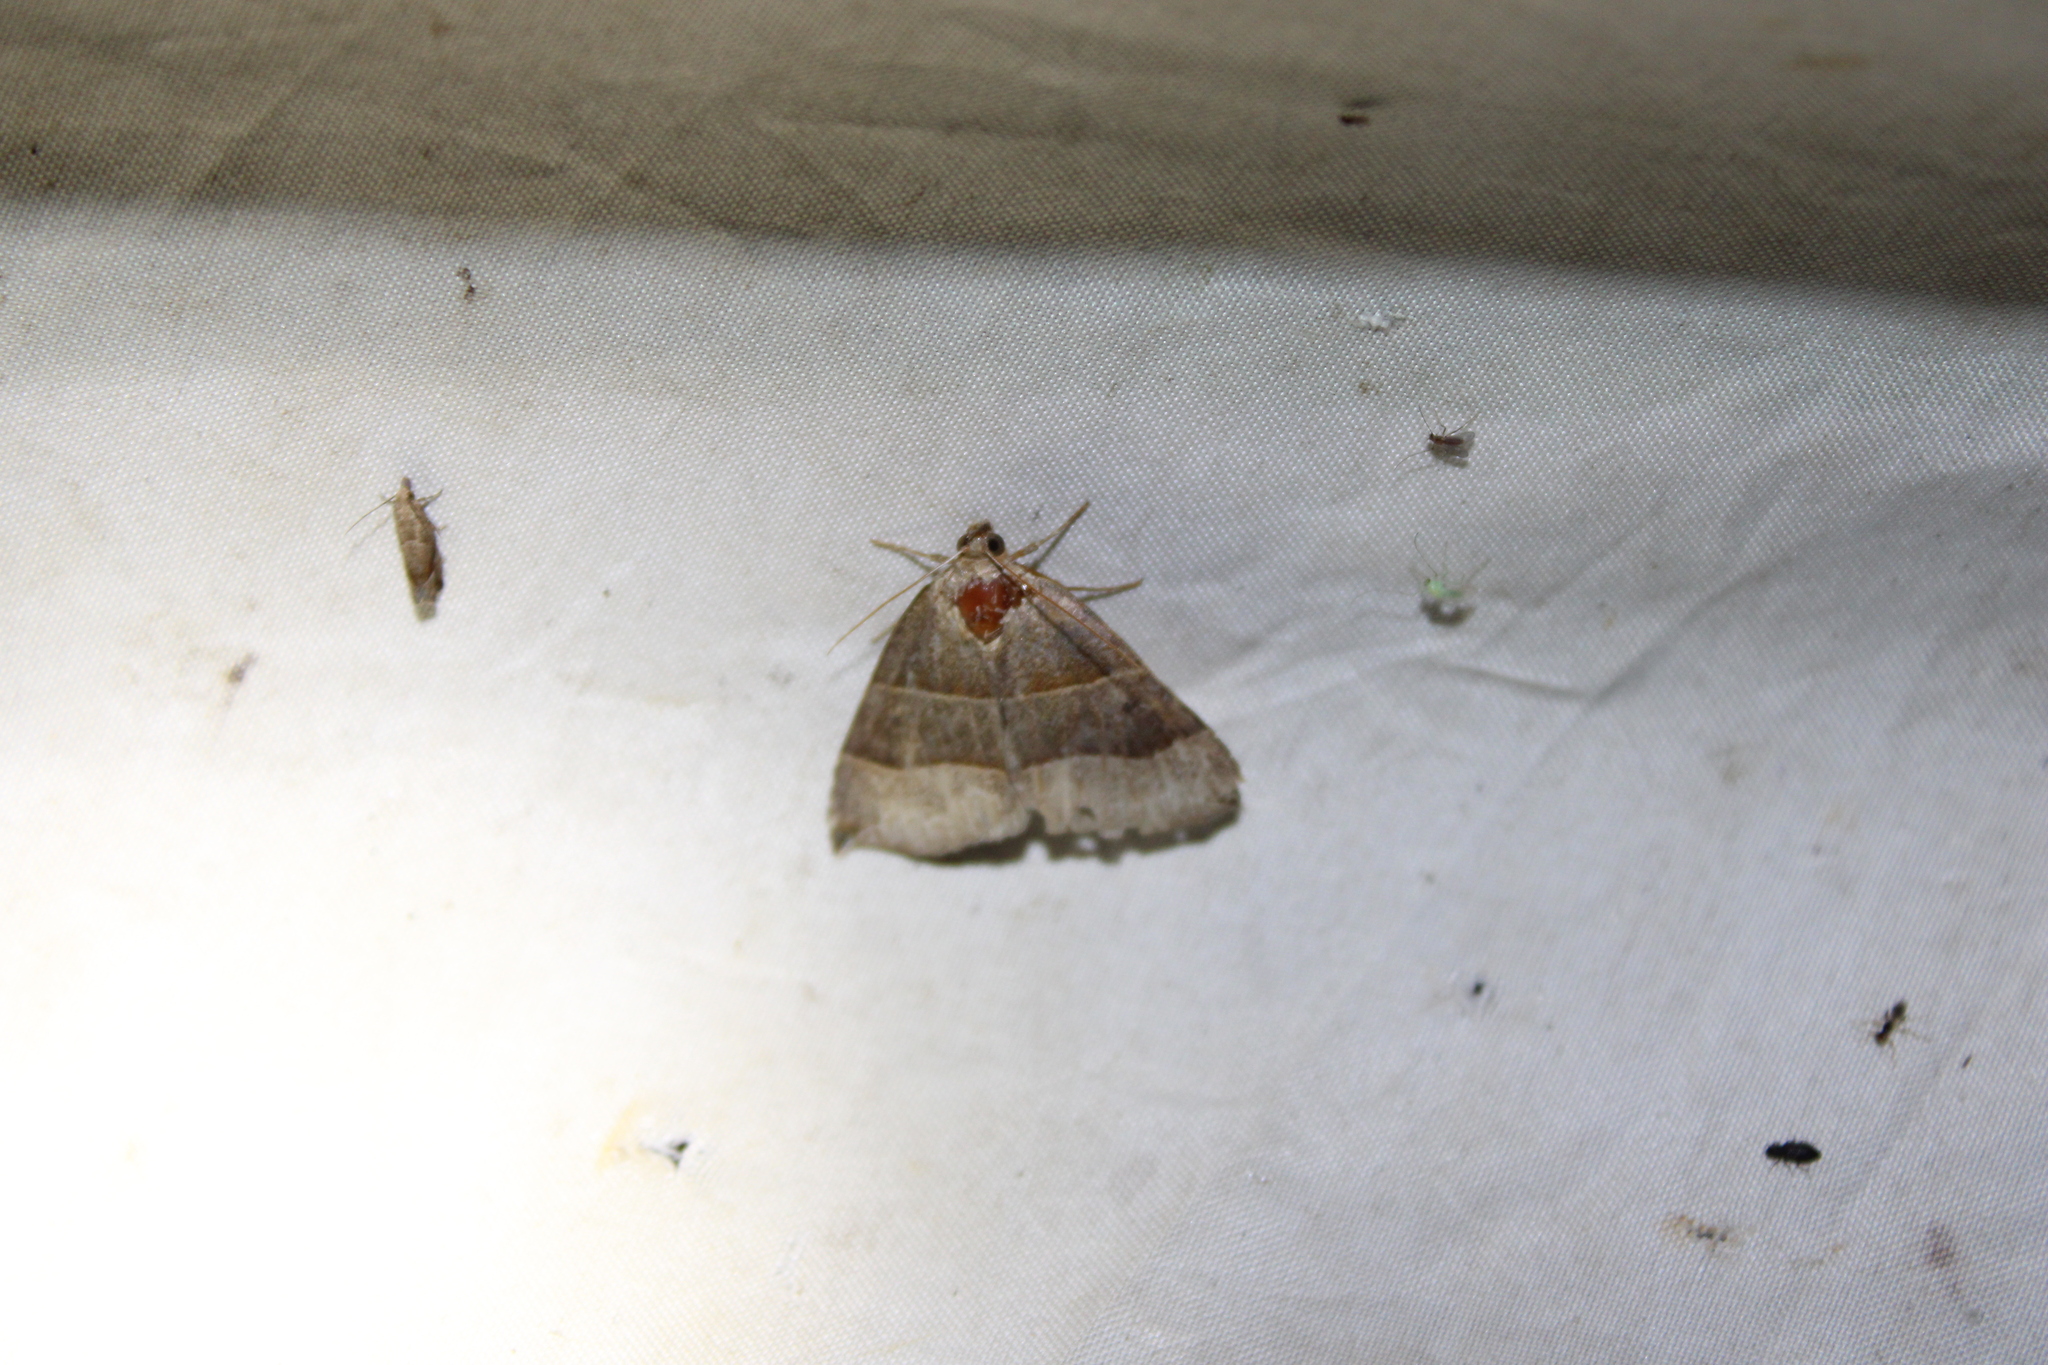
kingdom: Animalia
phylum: Arthropoda
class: Insecta
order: Lepidoptera
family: Erebidae
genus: Parallelia
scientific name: Parallelia bistriaris
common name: Maple looper moth
